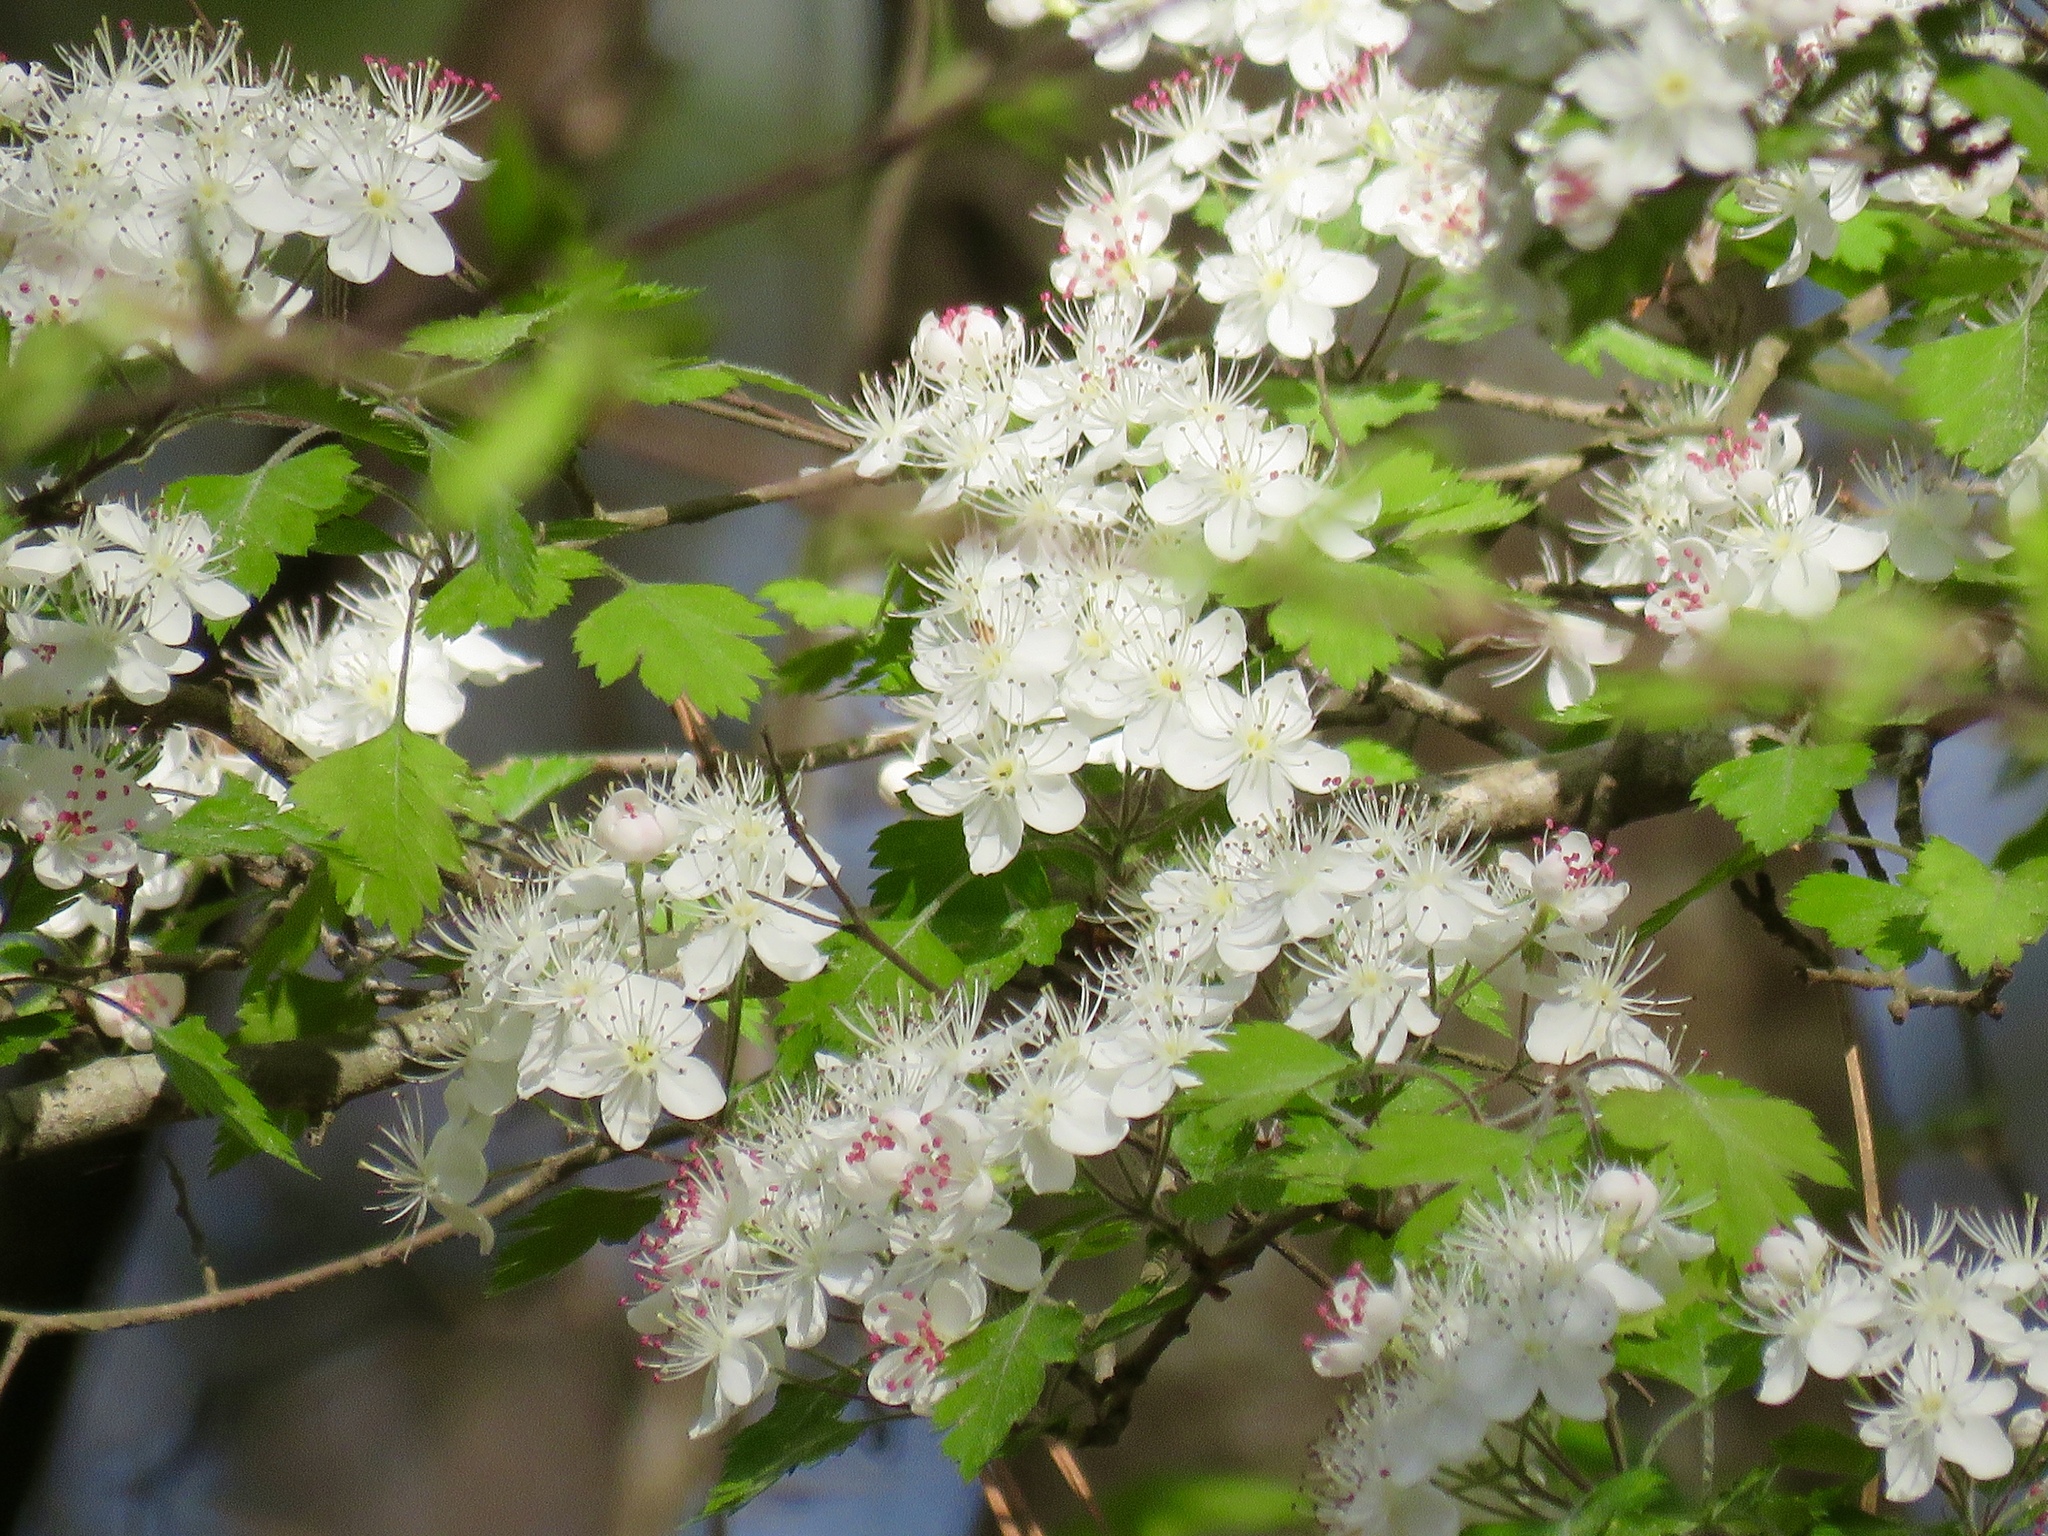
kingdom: Plantae
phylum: Tracheophyta
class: Magnoliopsida
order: Rosales
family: Rosaceae
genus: Crataegus
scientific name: Crataegus marshallii
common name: Parsley-hawthorn
